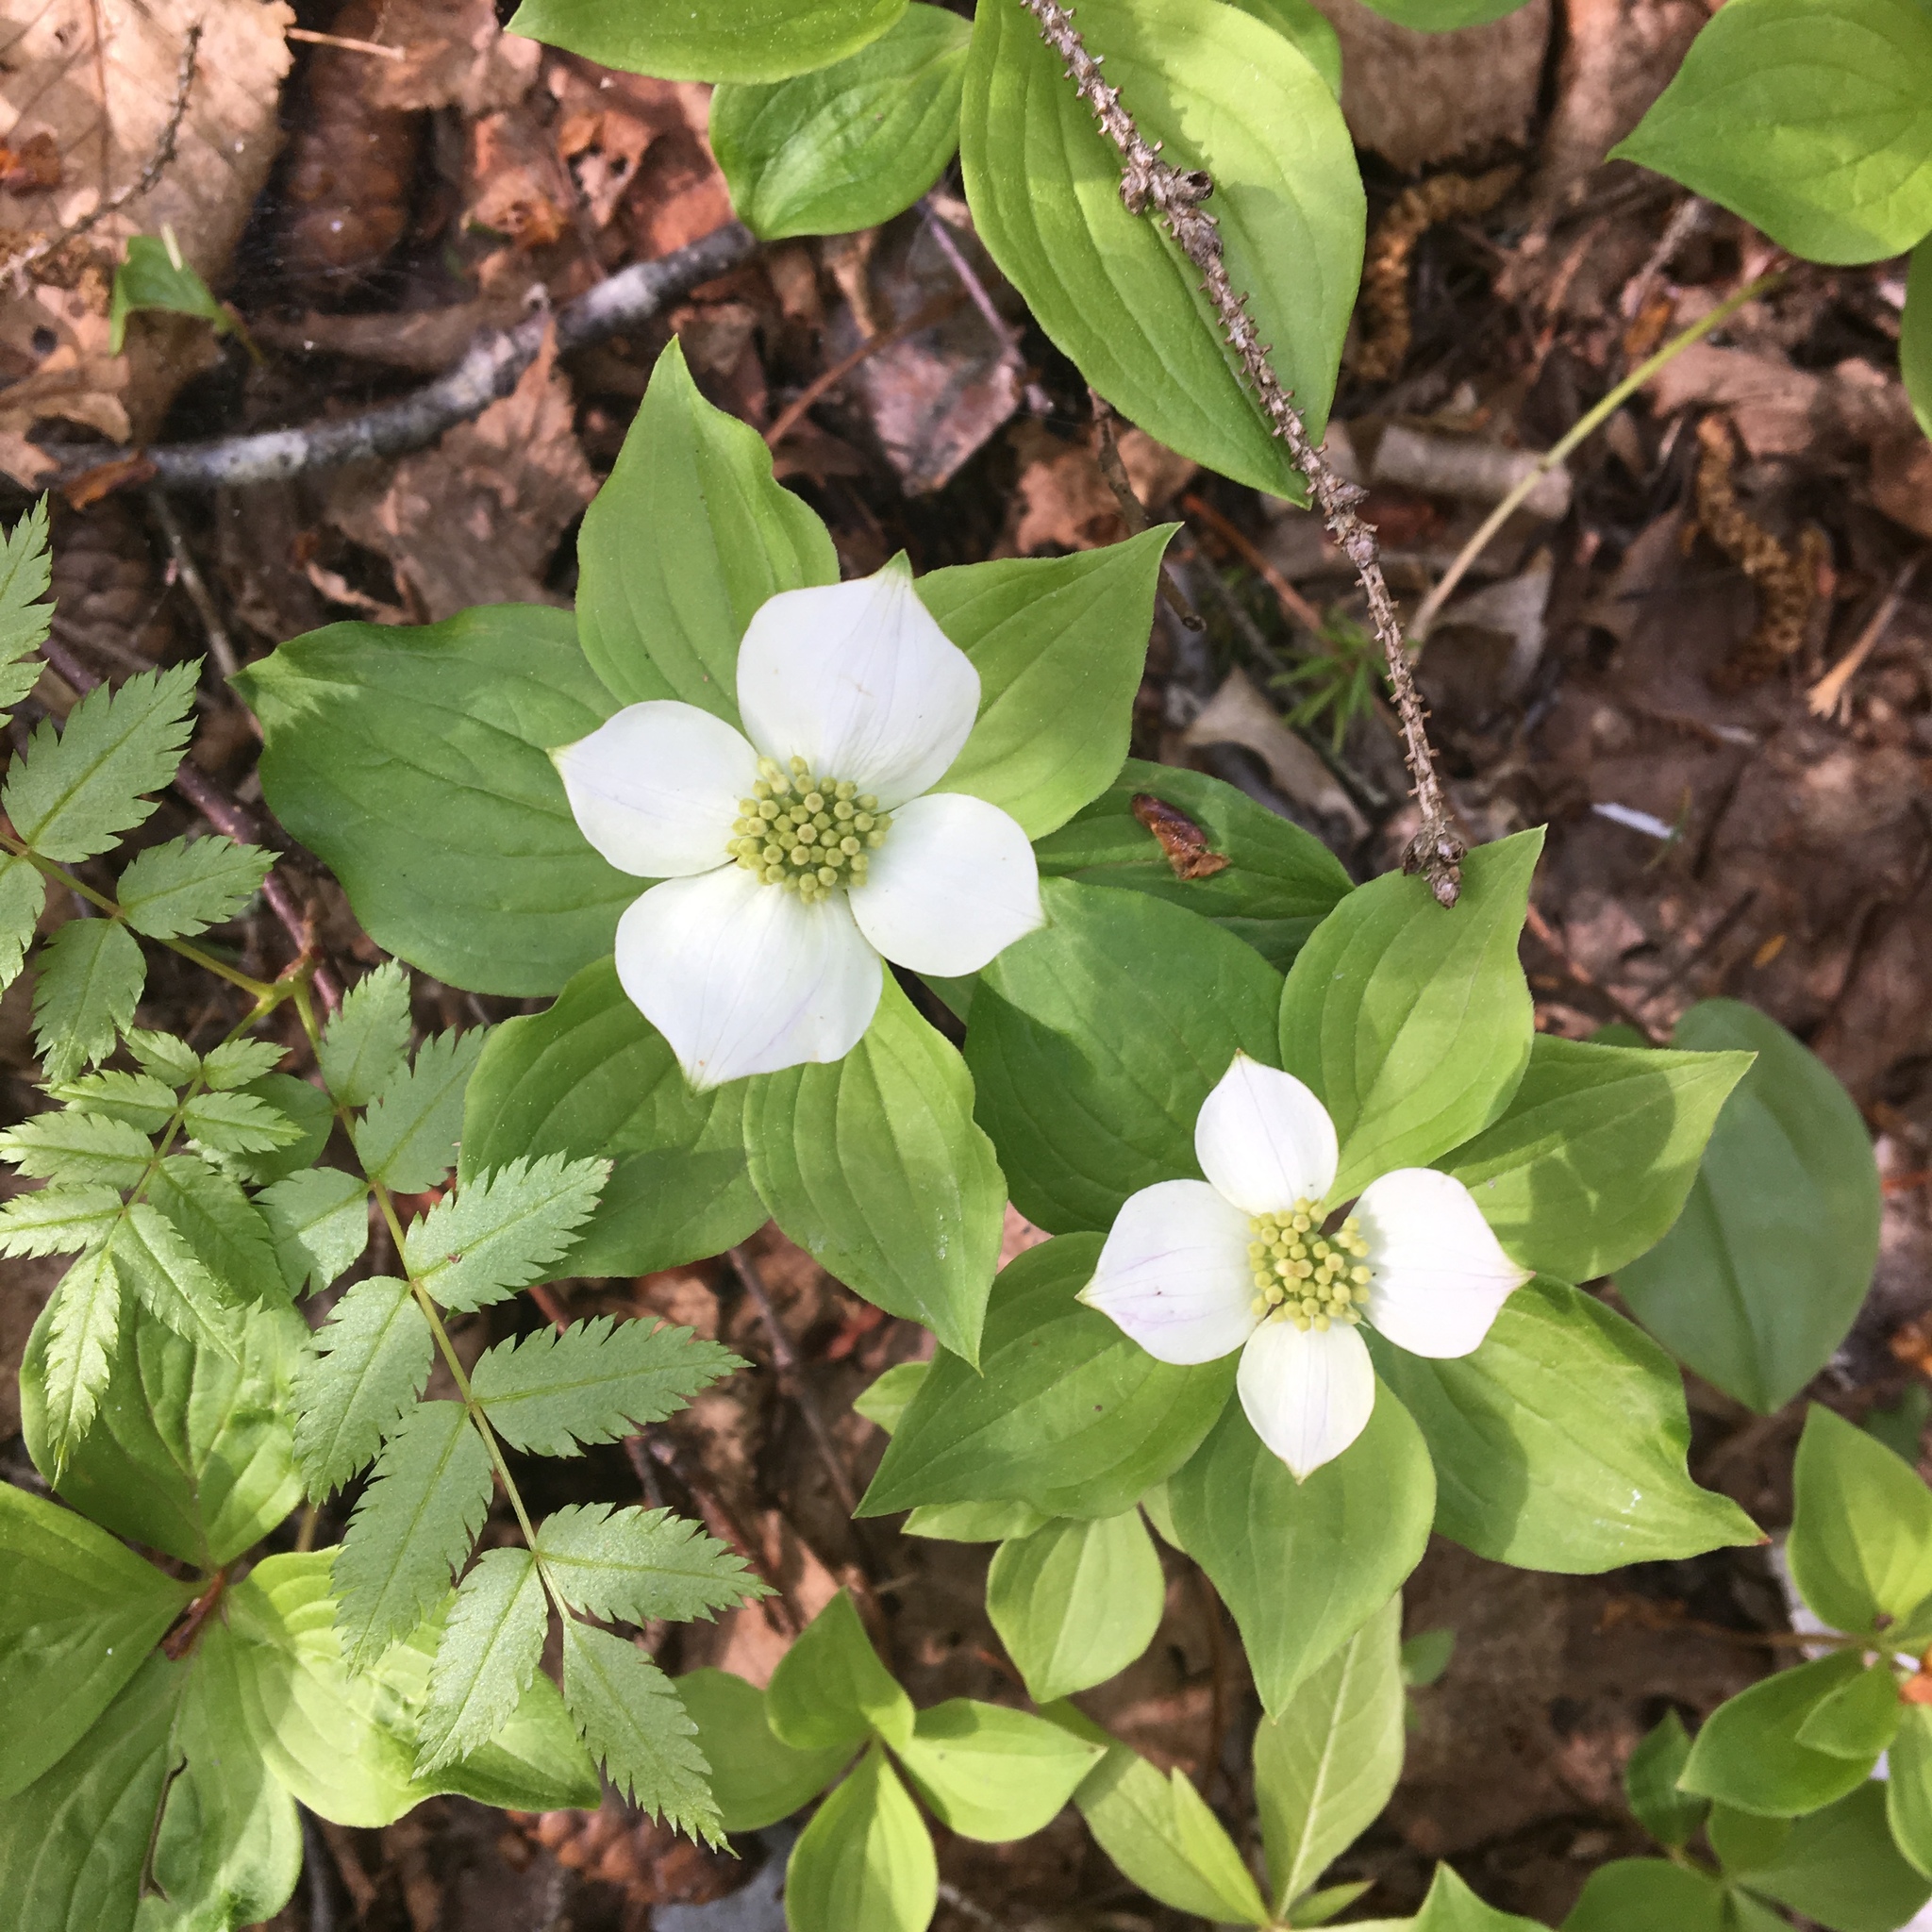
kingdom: Plantae
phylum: Tracheophyta
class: Magnoliopsida
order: Cornales
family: Cornaceae
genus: Cornus
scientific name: Cornus canadensis
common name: Creeping dogwood
